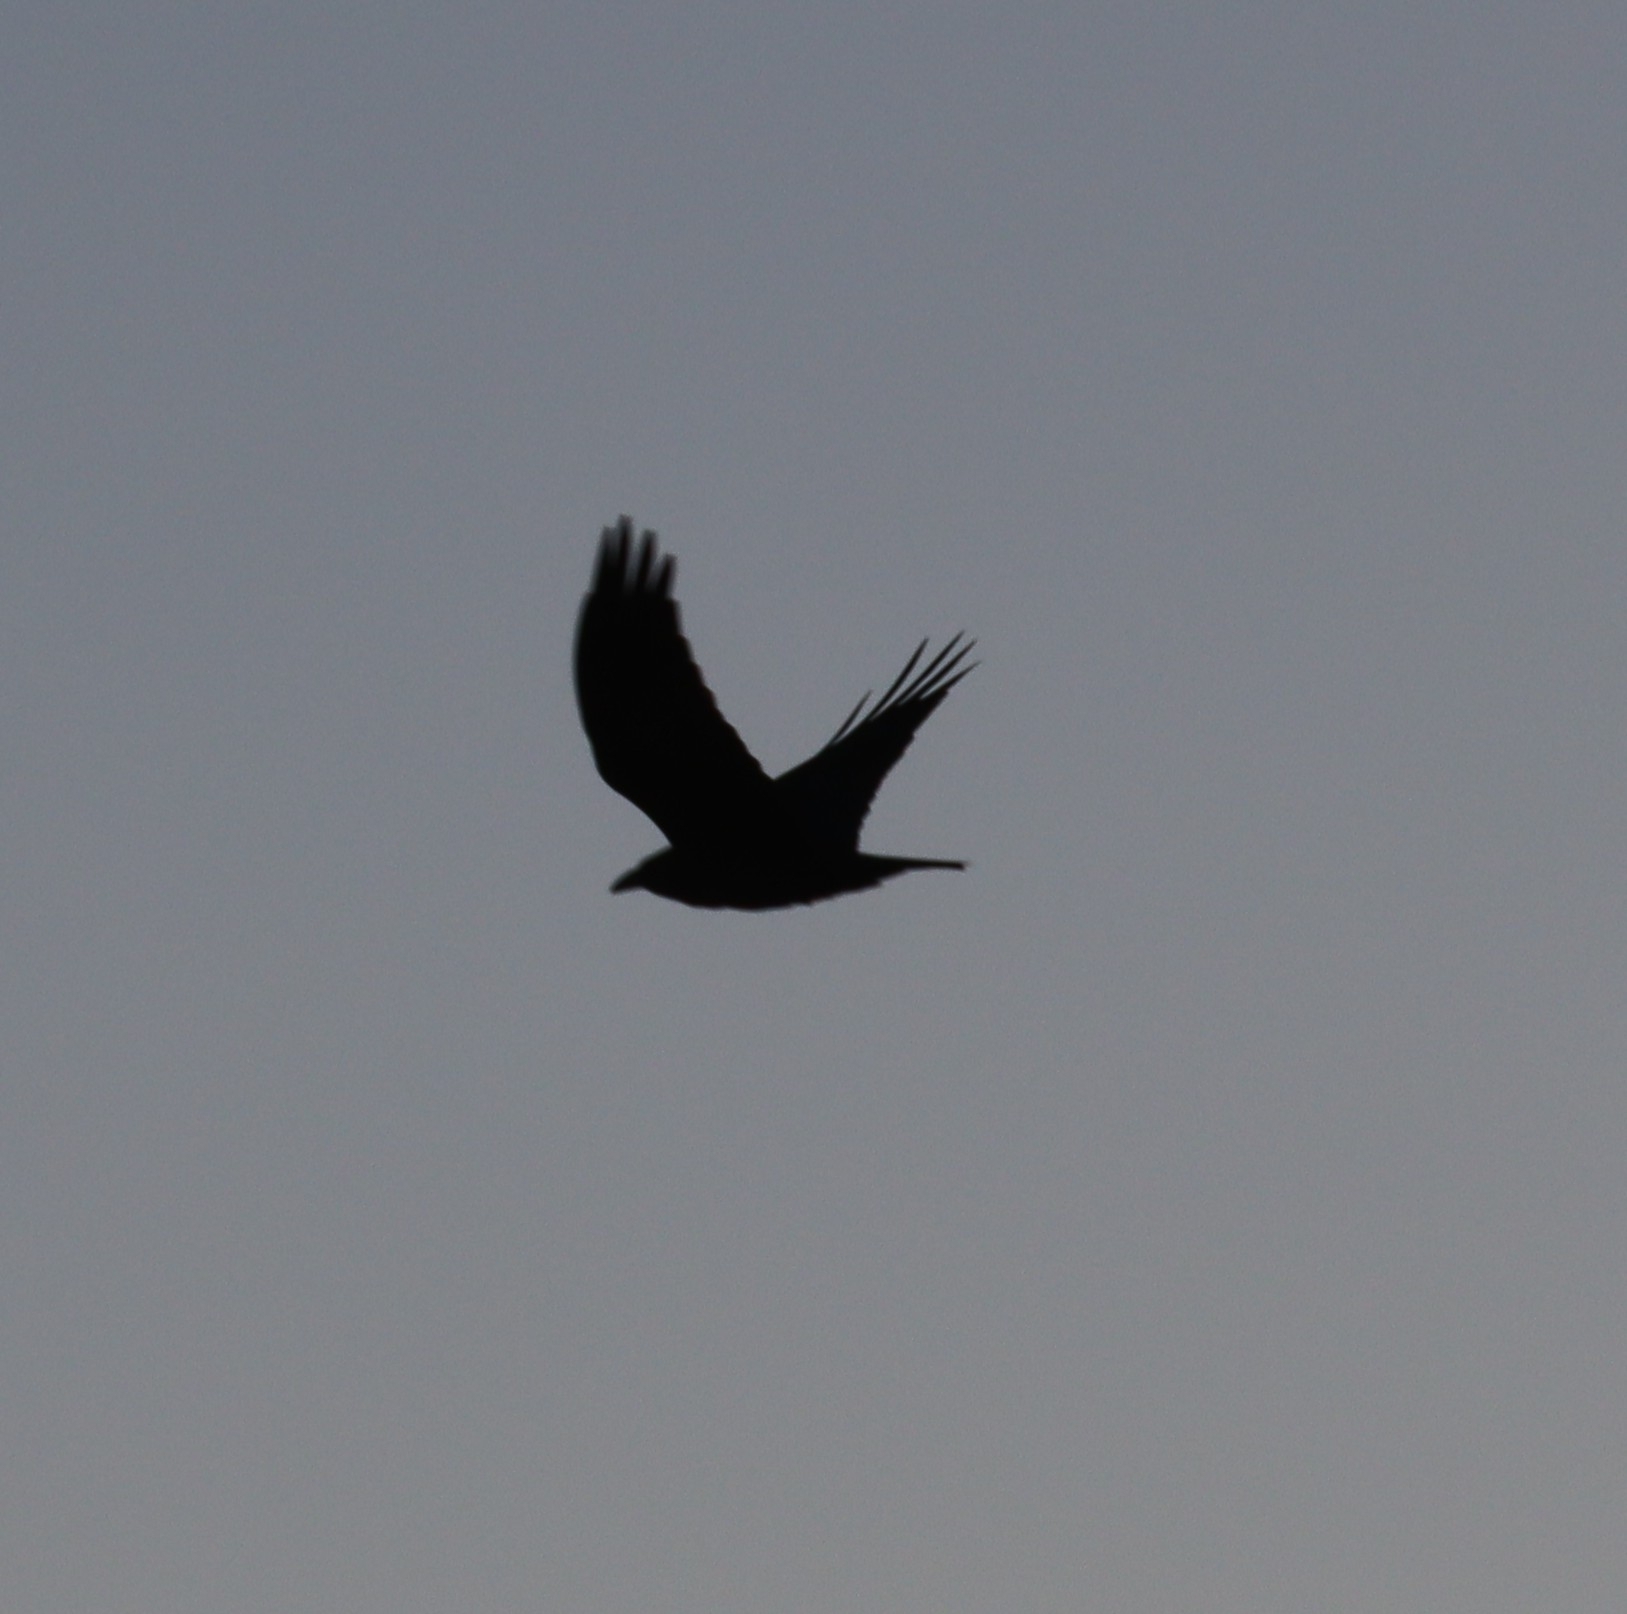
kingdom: Animalia
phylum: Chordata
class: Aves
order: Passeriformes
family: Corvidae
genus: Corvus
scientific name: Corvus ruficollis
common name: Brown-necked raven
